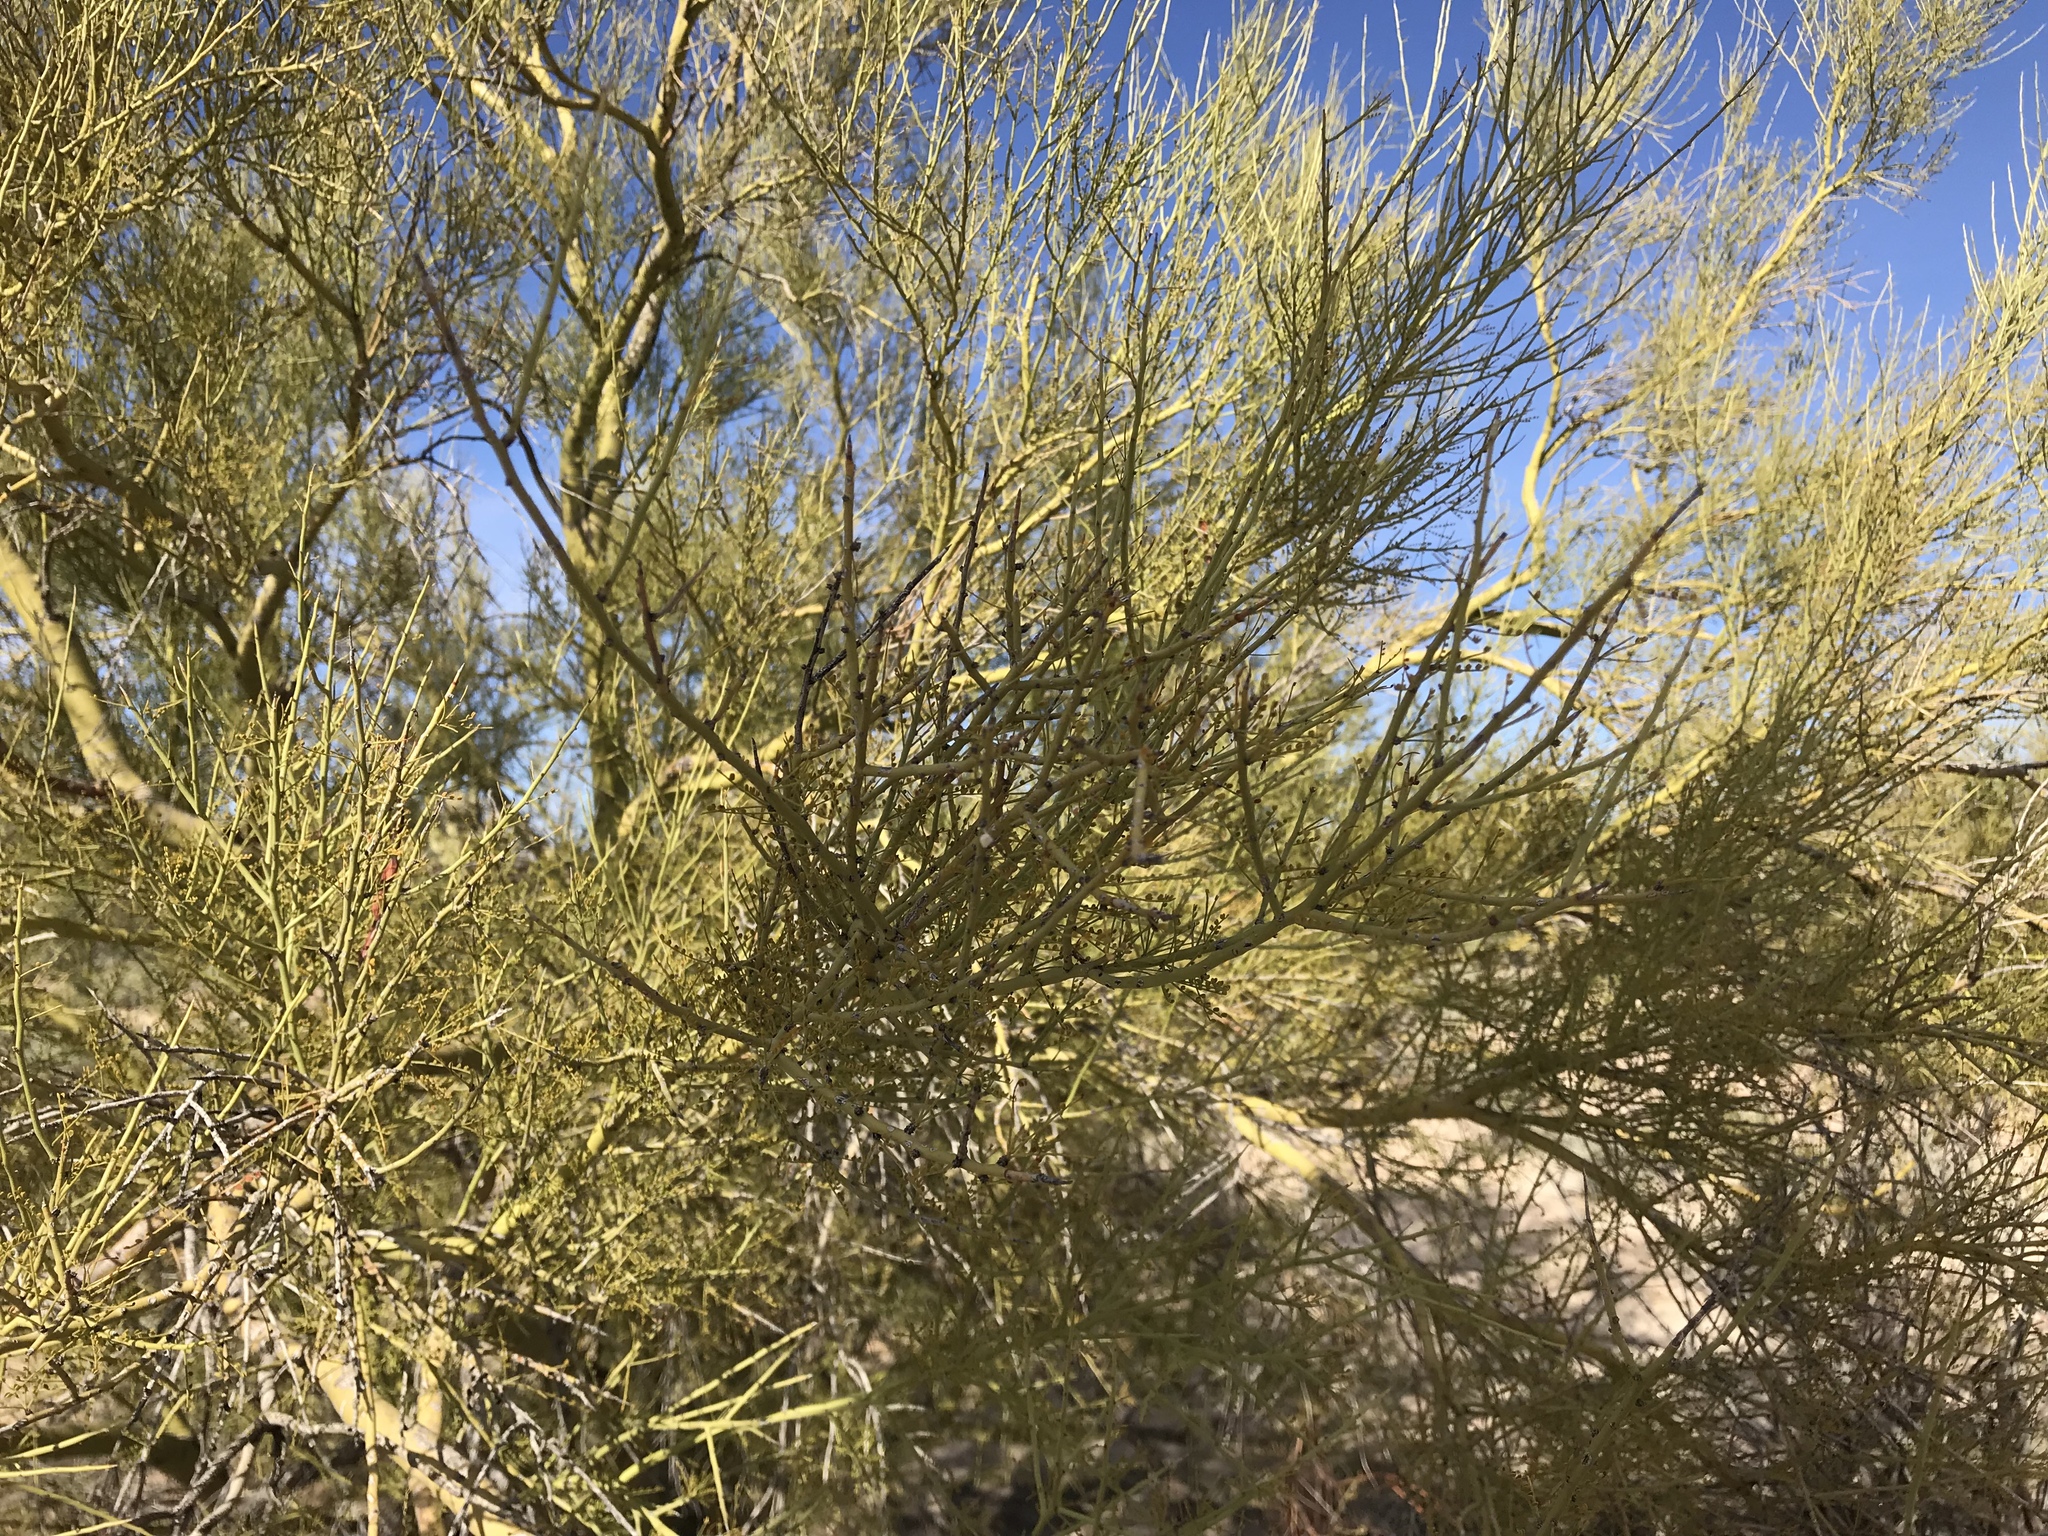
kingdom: Plantae
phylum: Tracheophyta
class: Magnoliopsida
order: Fabales
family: Fabaceae
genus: Parkinsonia
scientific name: Parkinsonia microphylla
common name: Yellow paloverde
